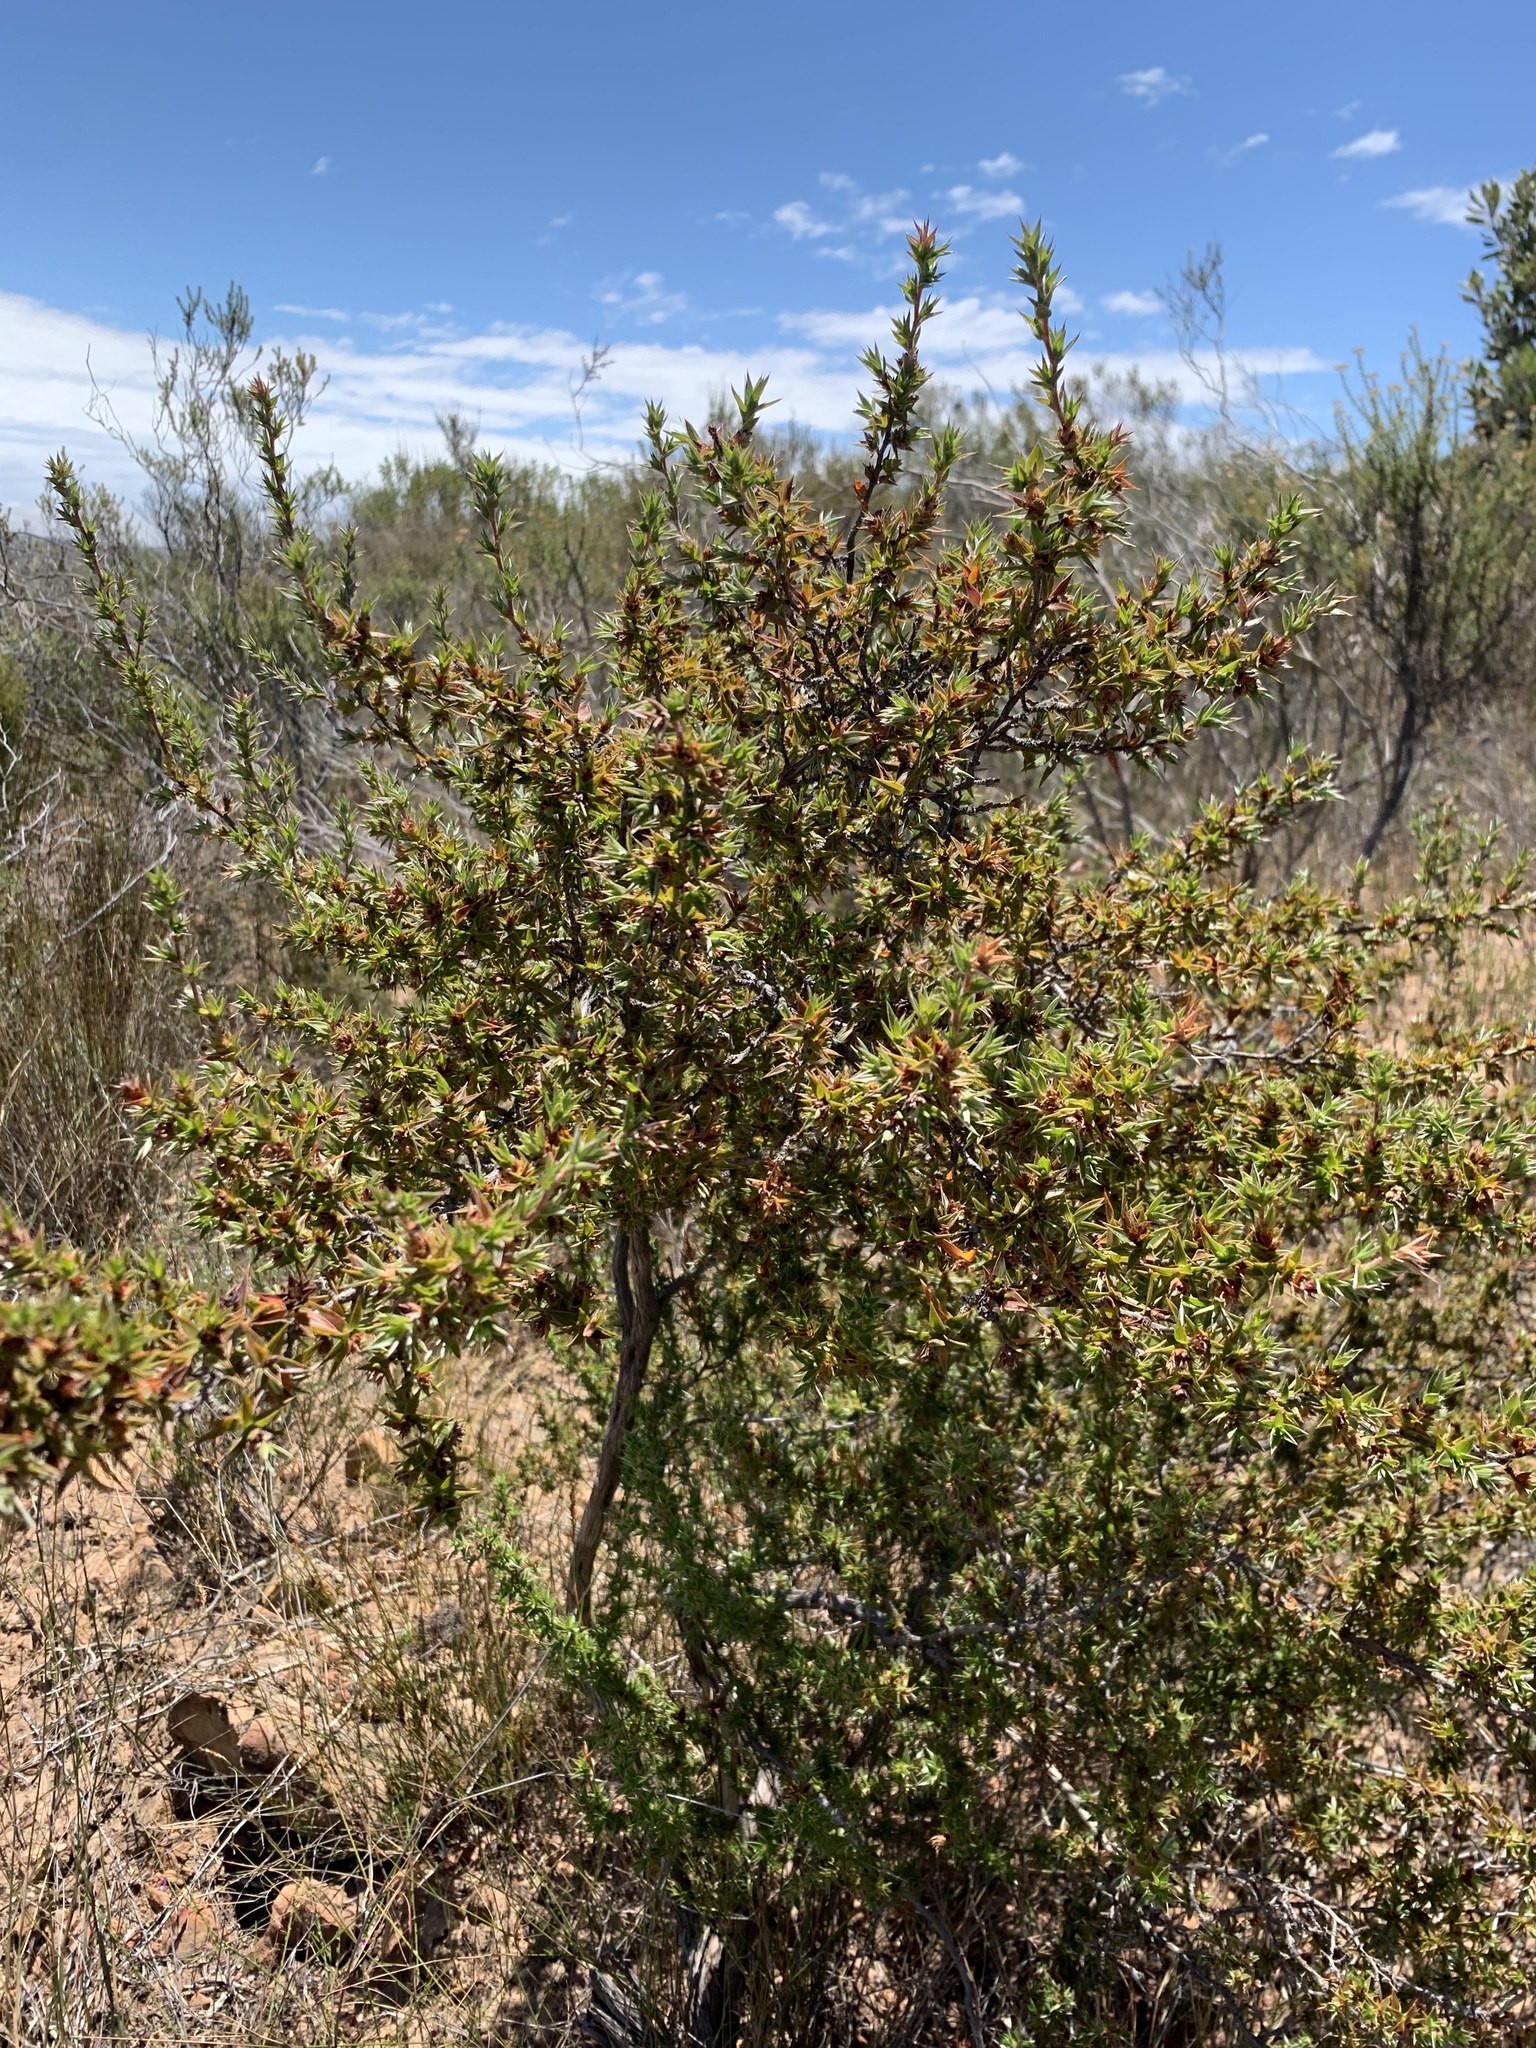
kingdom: Plantae
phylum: Tracheophyta
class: Magnoliopsida
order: Rosales
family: Rosaceae
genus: Cliffortia
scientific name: Cliffortia ruscifolia
